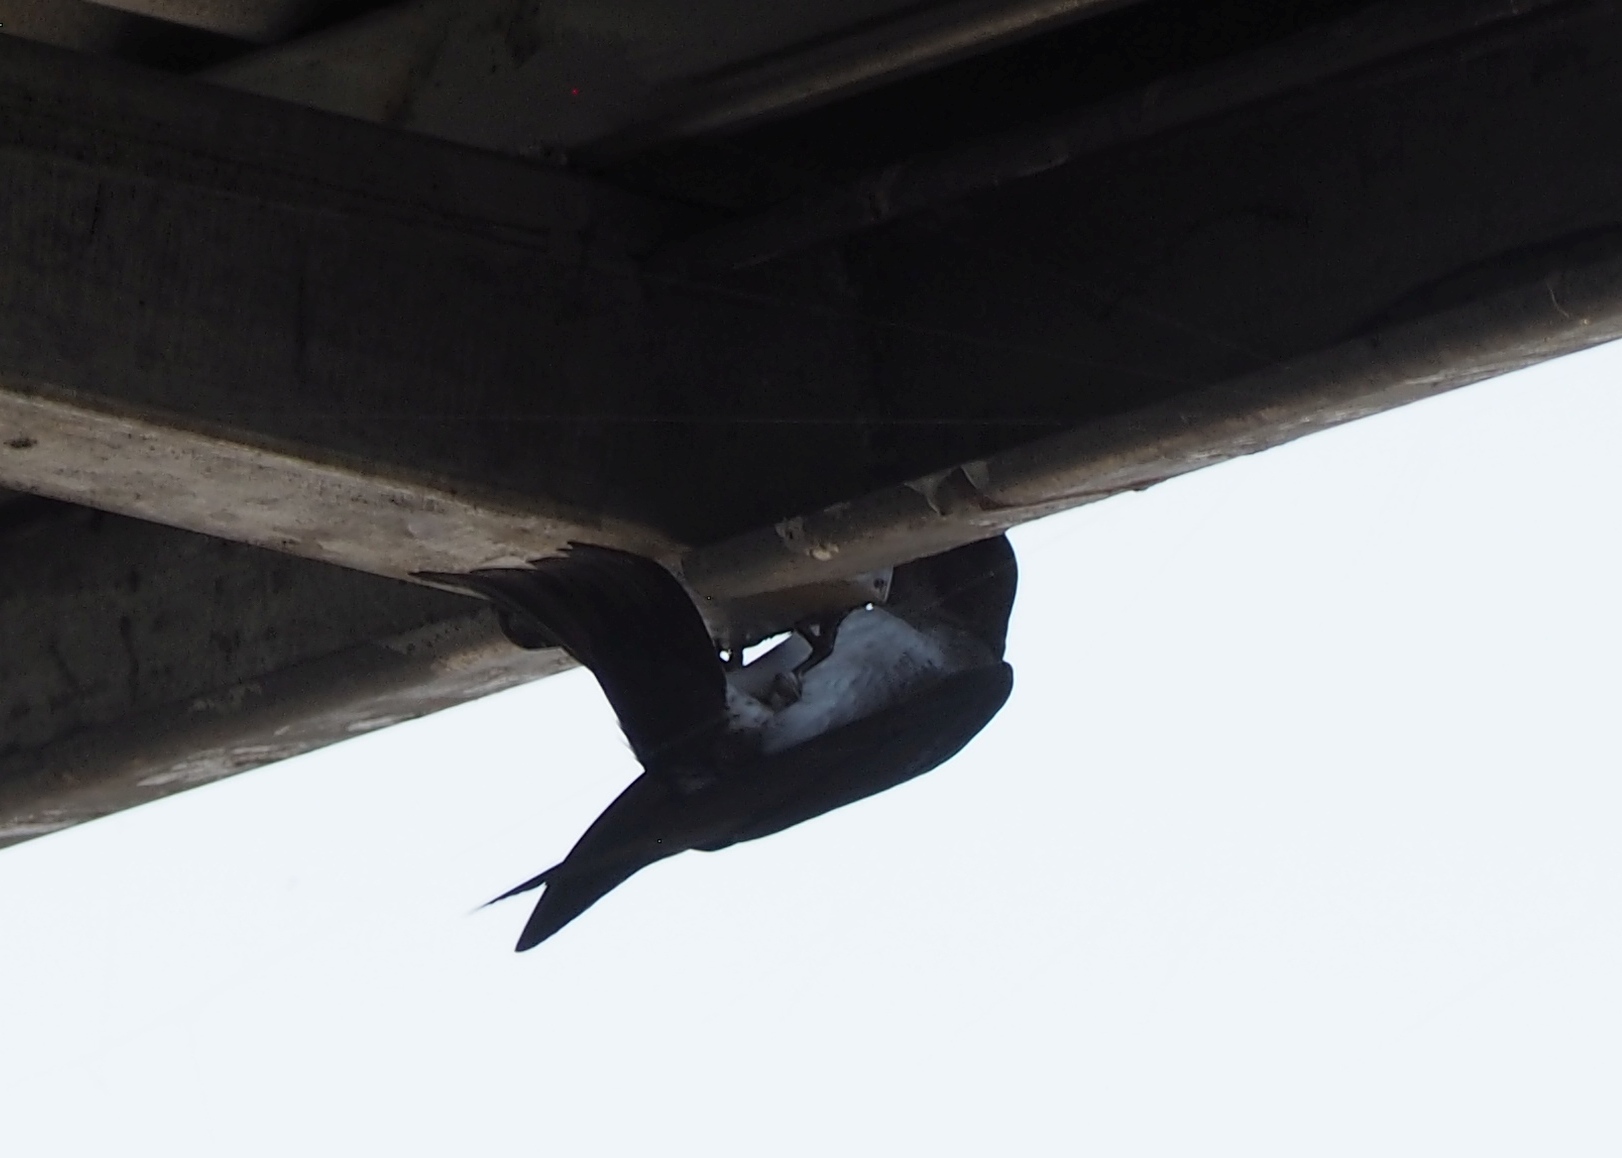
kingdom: Animalia
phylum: Chordata
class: Aves
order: Passeriformes
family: Hirundinidae
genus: Progne
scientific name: Progne chalybea
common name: Grey-breasted martin
